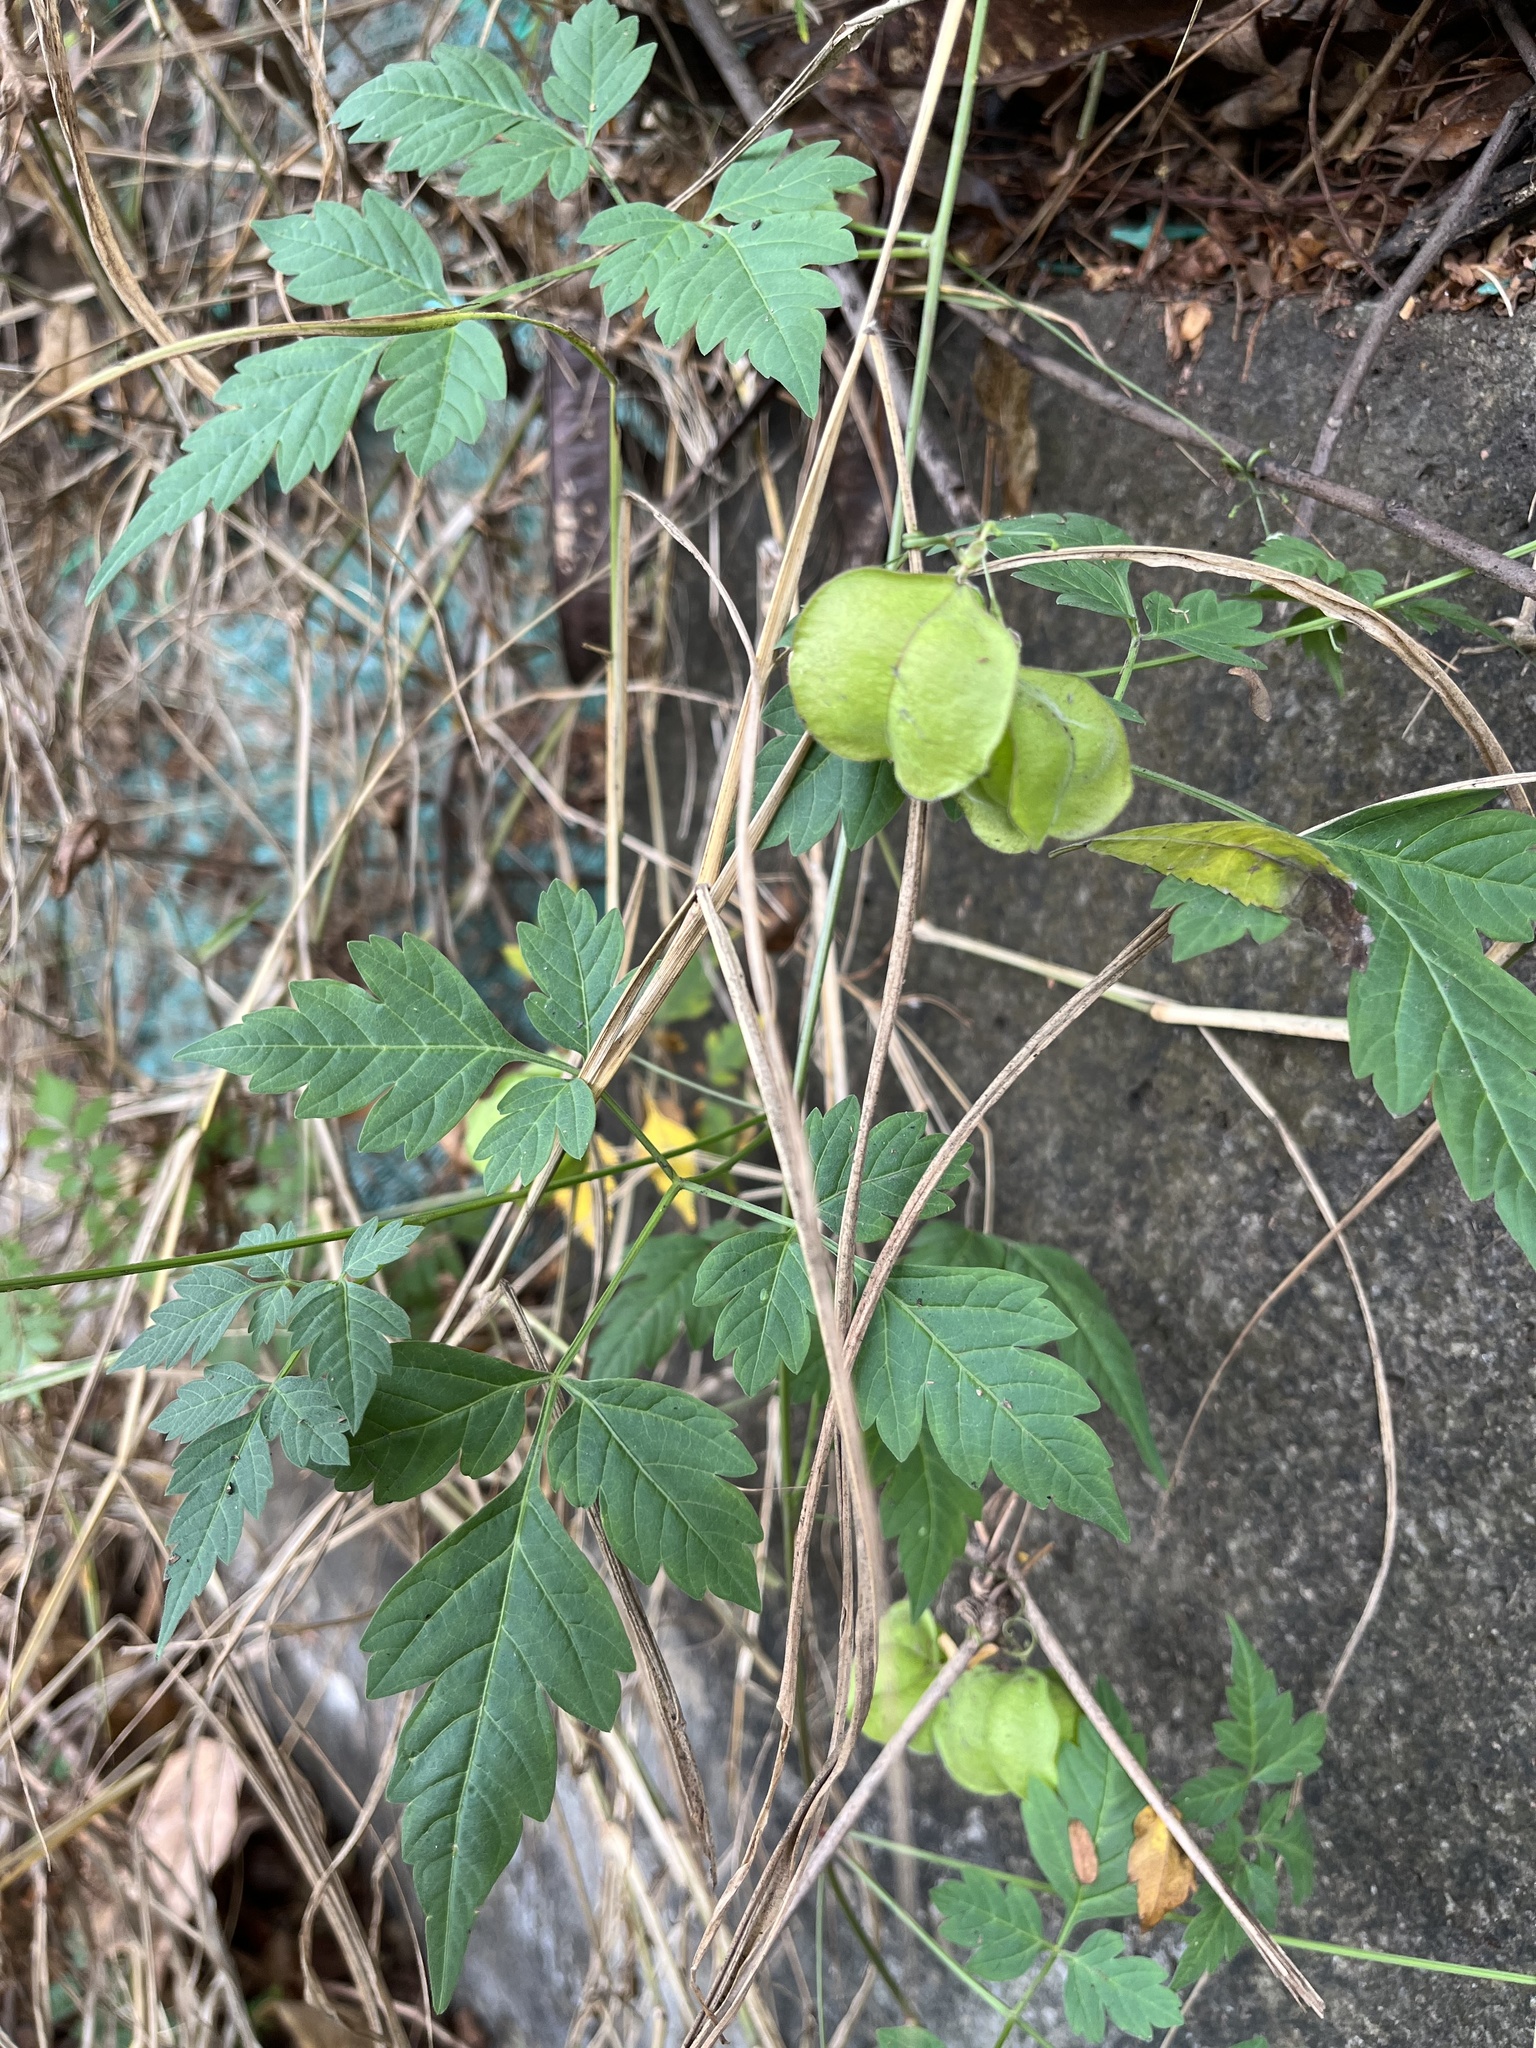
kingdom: Plantae
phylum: Tracheophyta
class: Magnoliopsida
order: Sapindales
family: Sapindaceae
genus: Cardiospermum
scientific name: Cardiospermum halicacabum
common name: Balloon vine
